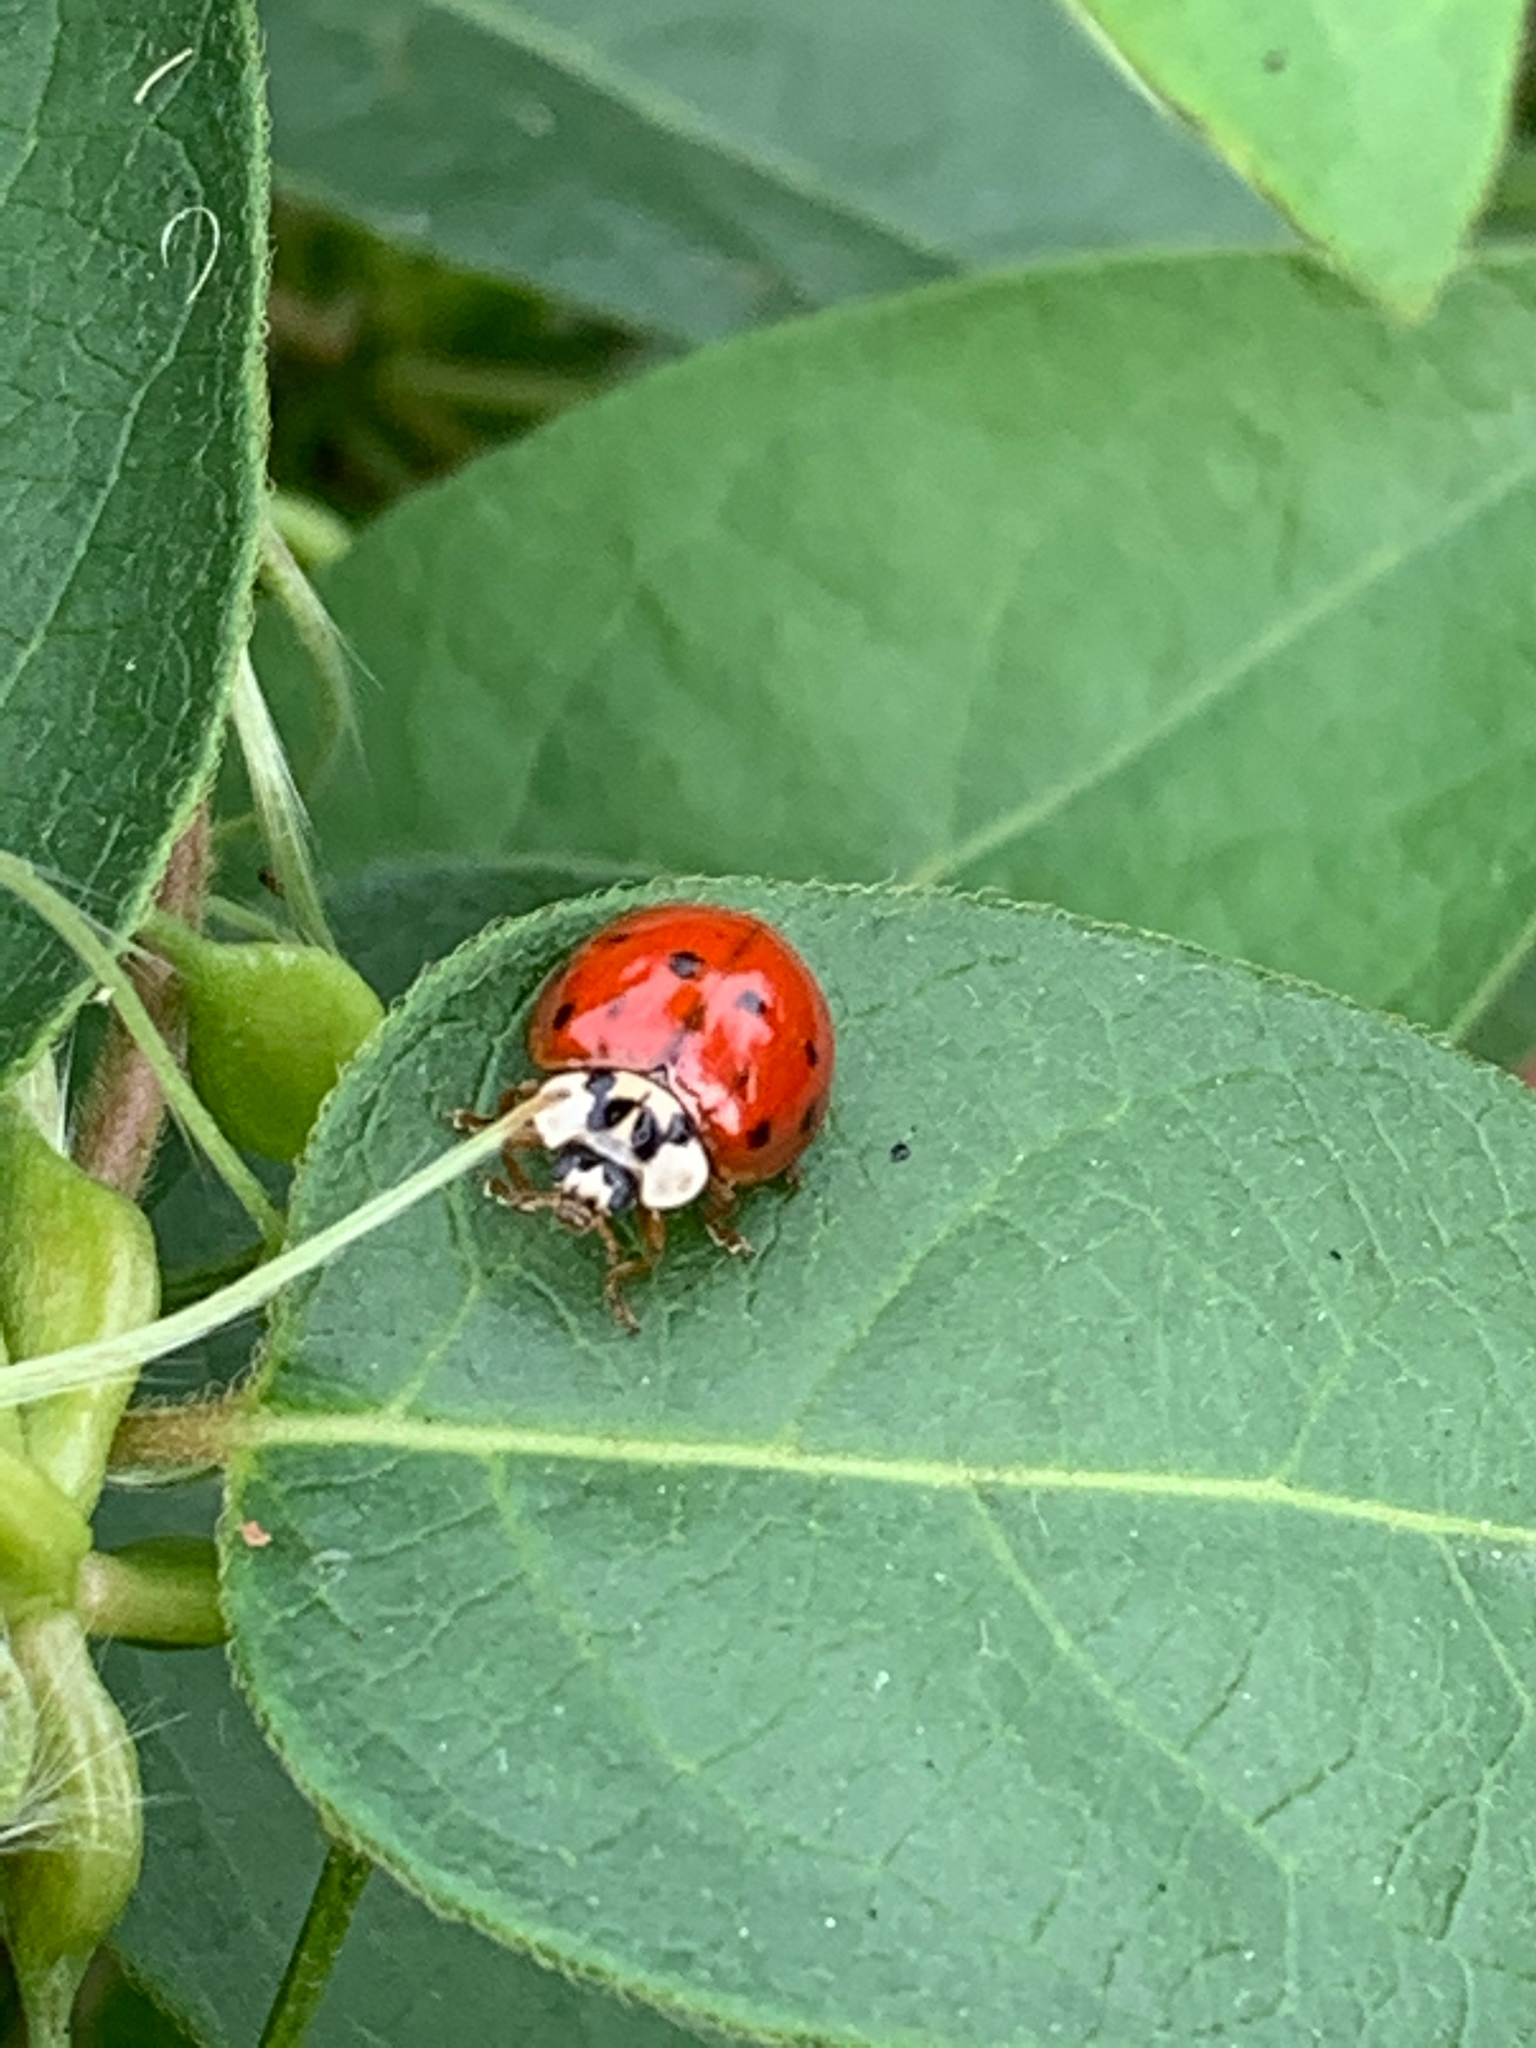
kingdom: Animalia
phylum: Arthropoda
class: Insecta
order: Coleoptera
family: Coccinellidae
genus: Harmonia
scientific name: Harmonia axyridis
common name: Harlequin ladybird
